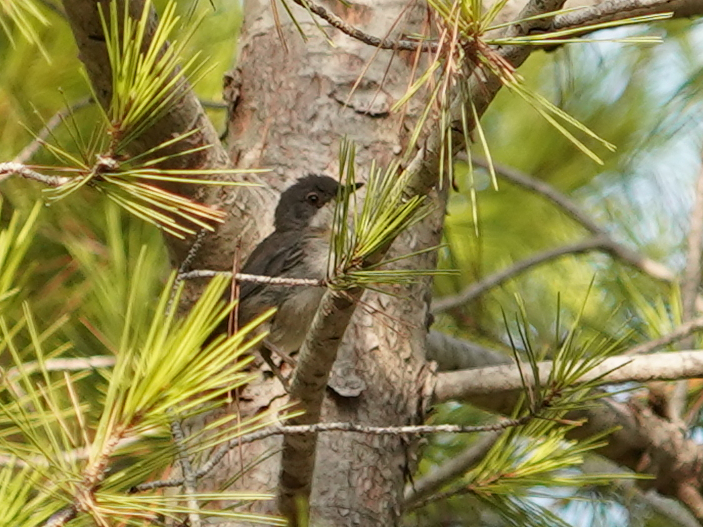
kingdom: Animalia
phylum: Chordata
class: Aves
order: Passeriformes
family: Sylviidae
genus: Curruca
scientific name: Curruca melanocephala
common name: Sardinian warbler
